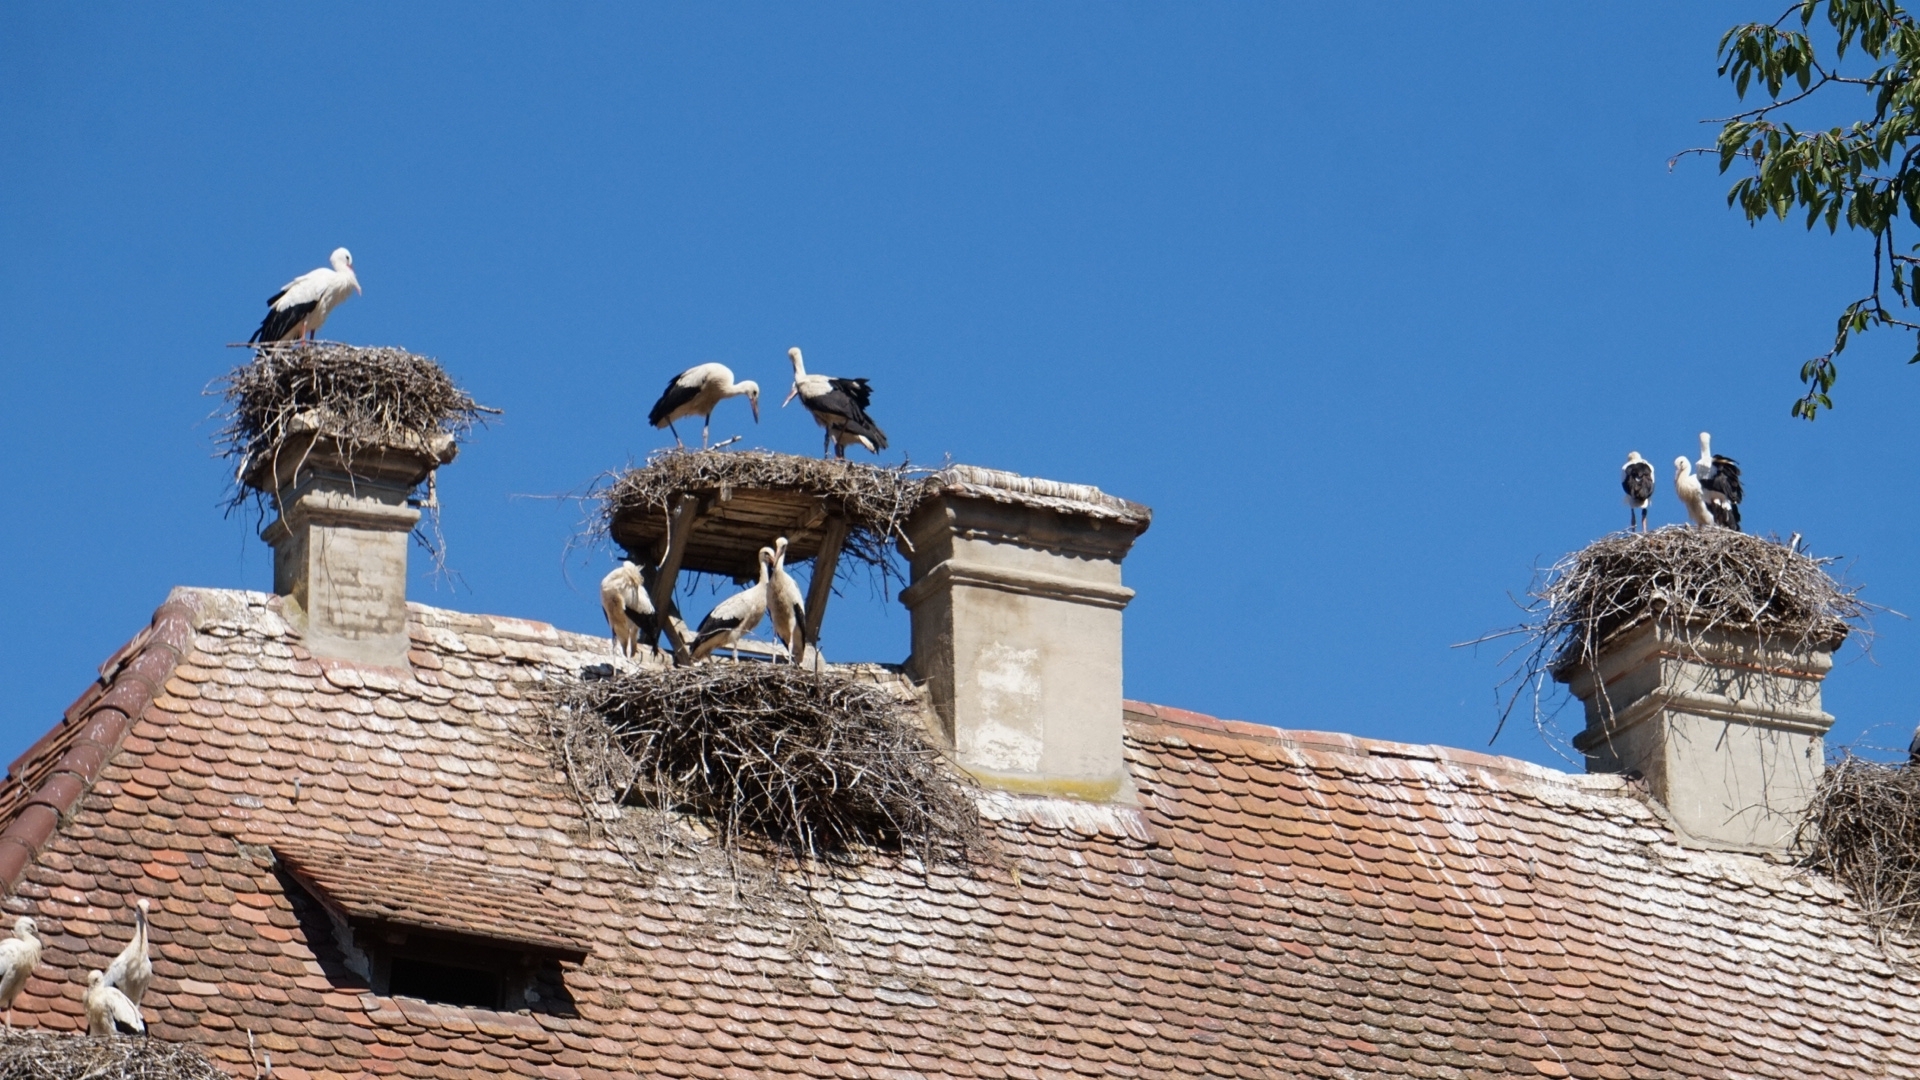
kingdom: Animalia
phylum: Chordata
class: Aves
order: Ciconiiformes
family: Ciconiidae
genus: Ciconia
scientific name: Ciconia ciconia
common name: White stork
